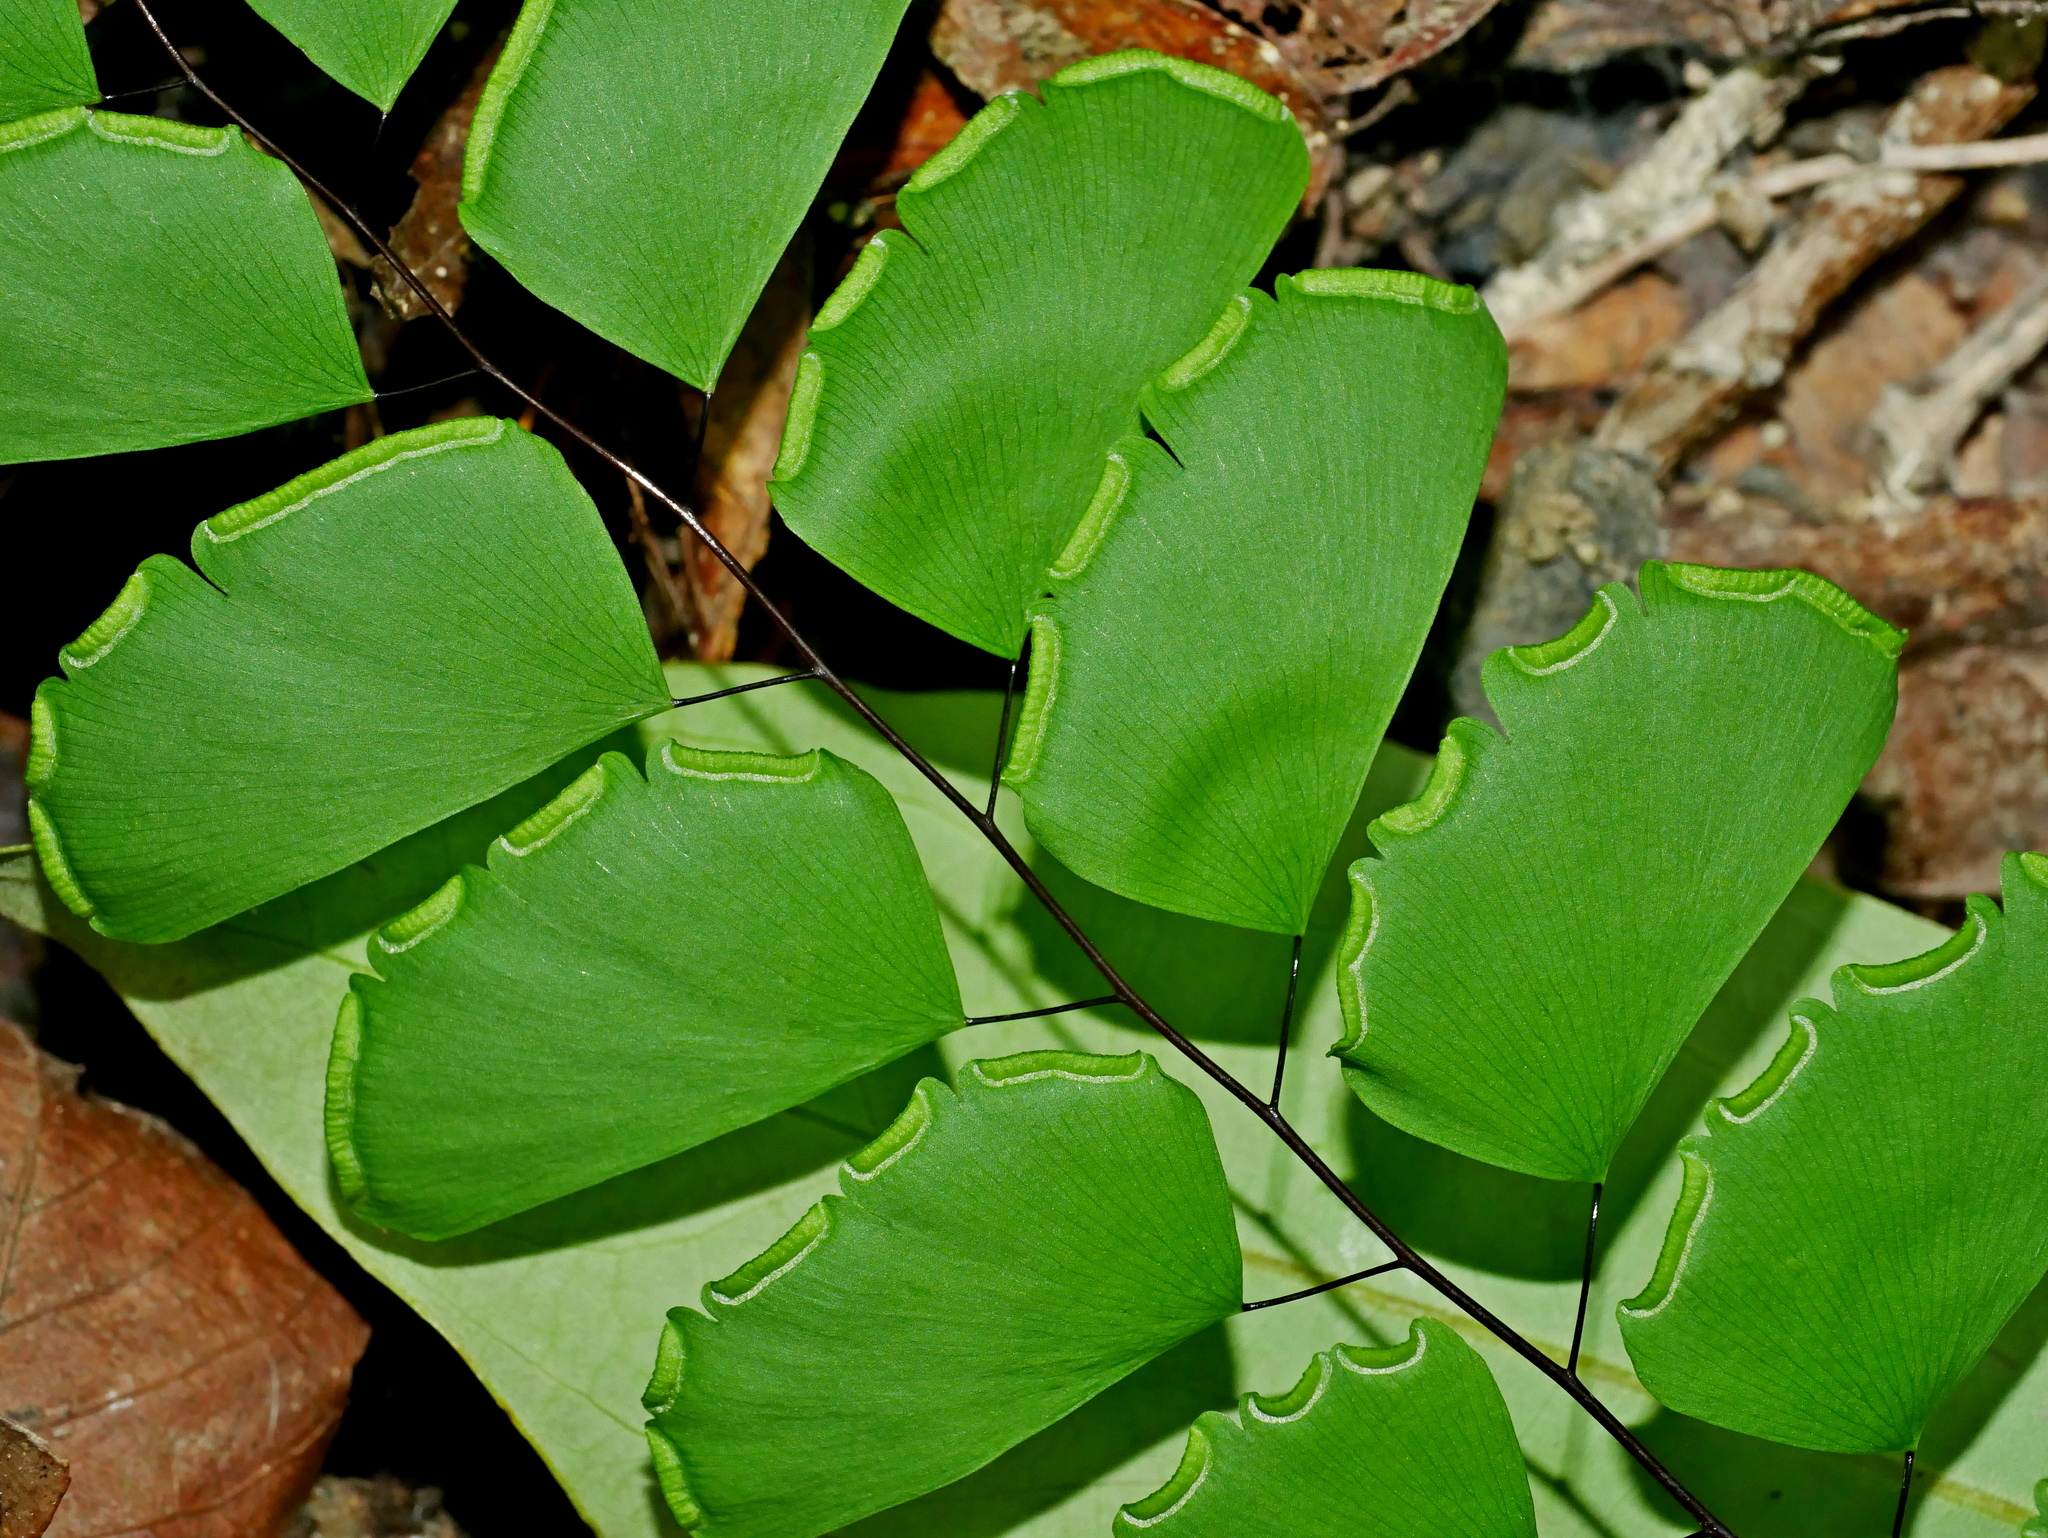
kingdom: Plantae
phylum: Tracheophyta
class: Polypodiopsida
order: Polypodiales
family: Pteridaceae
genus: Adiantum
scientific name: Adiantum philippense
